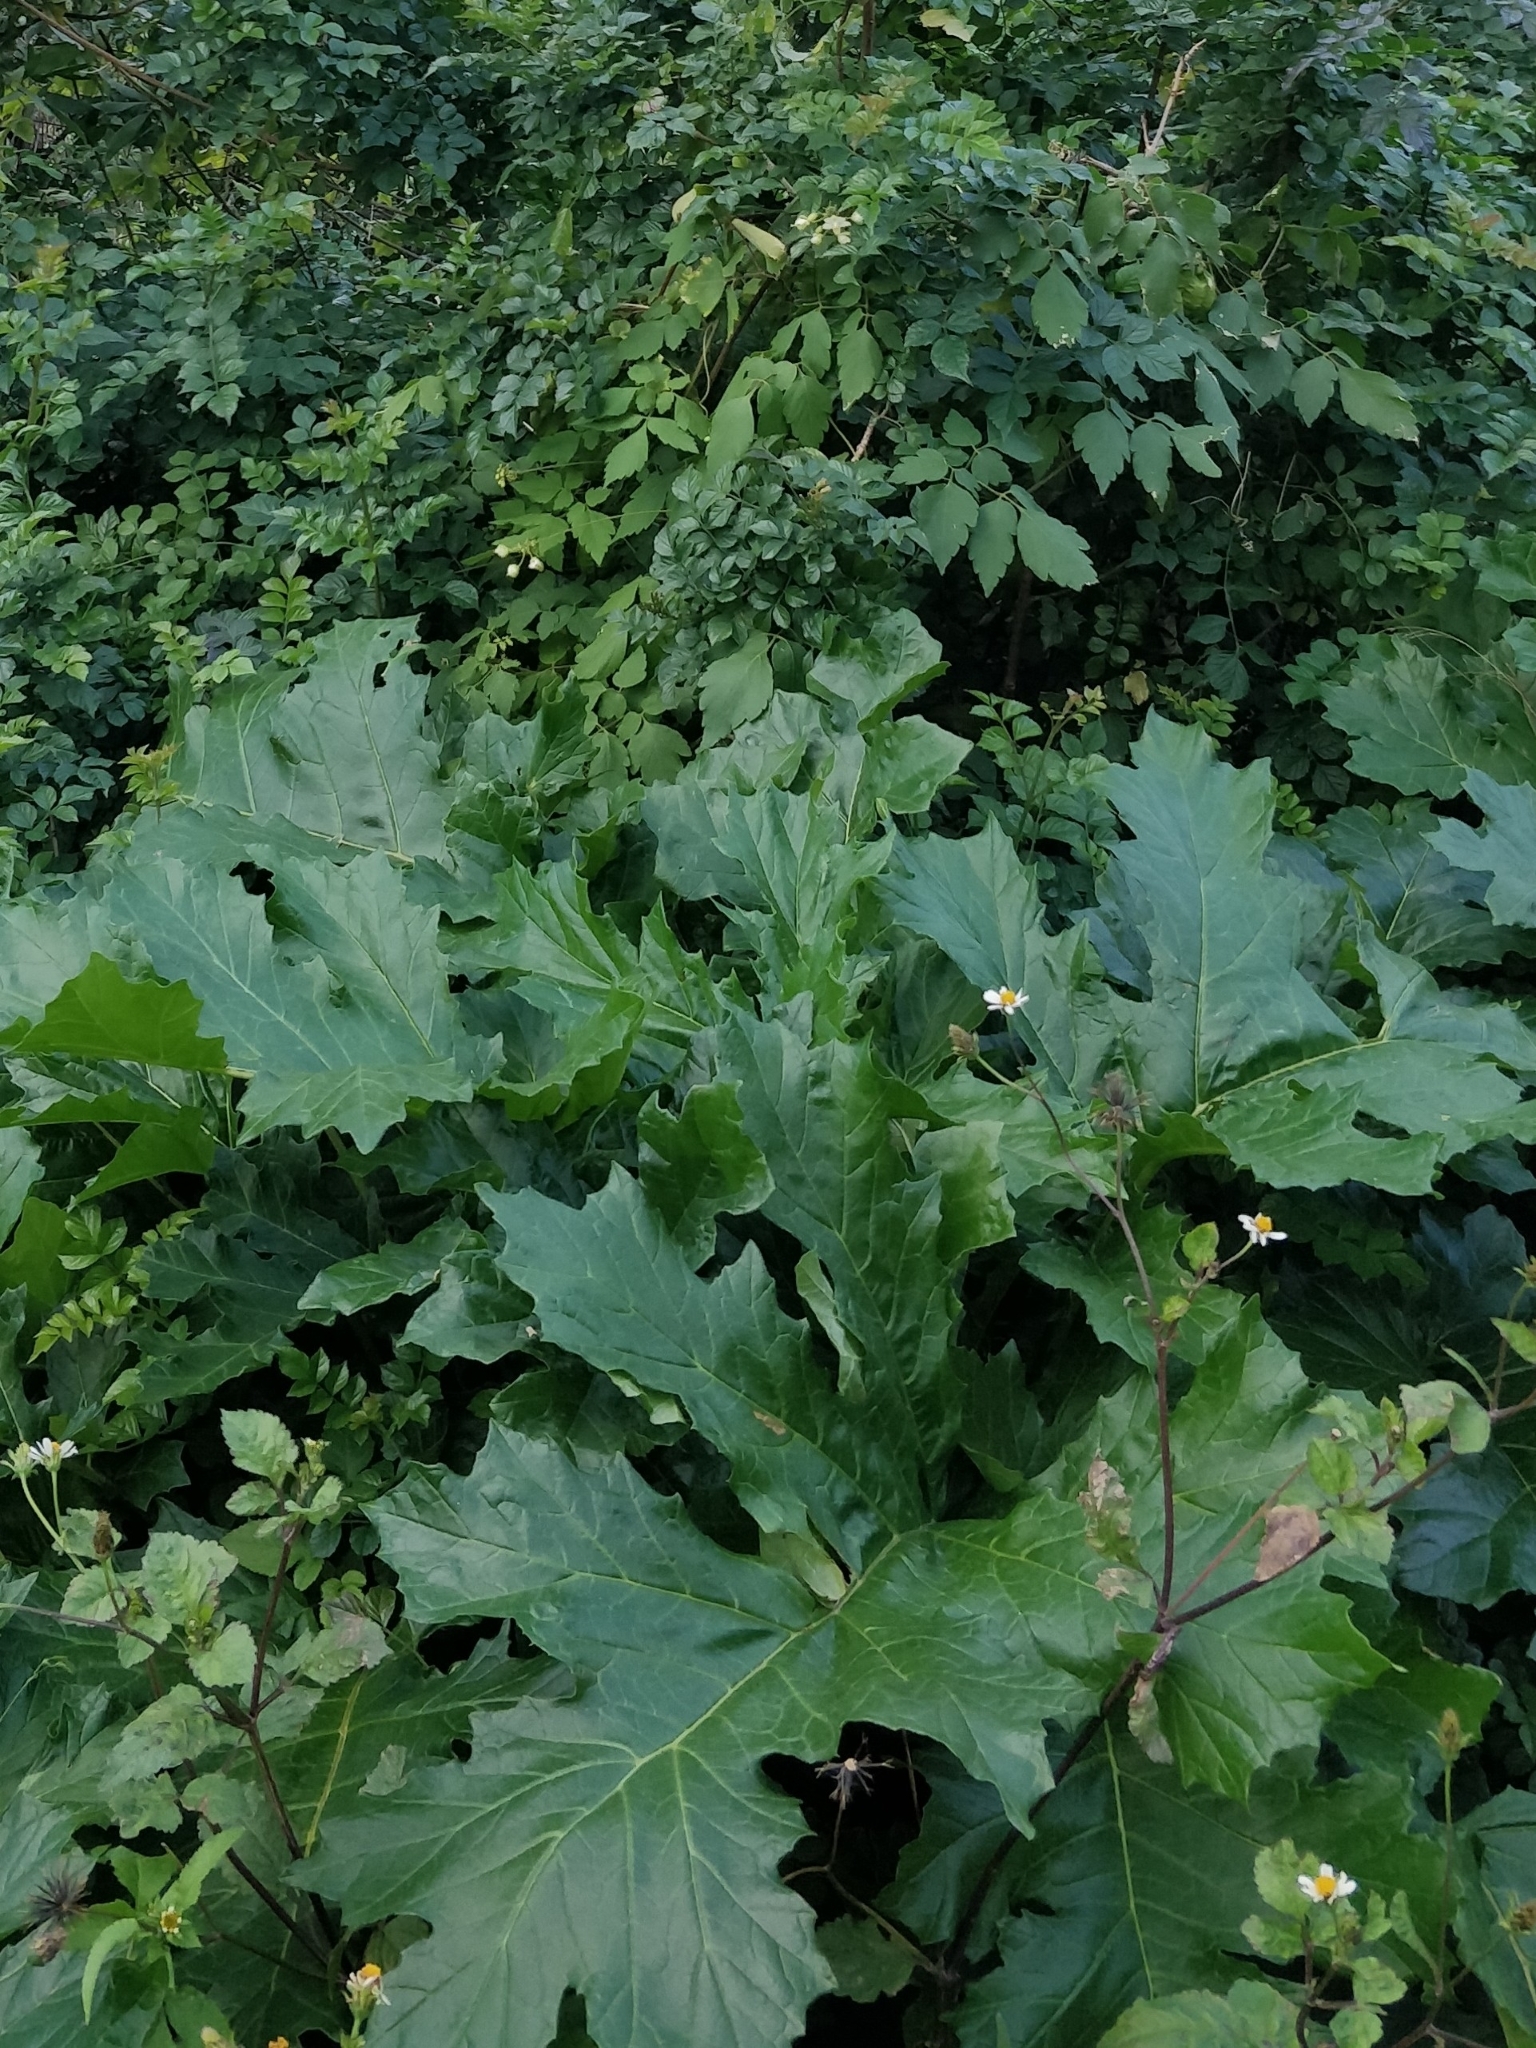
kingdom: Plantae
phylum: Tracheophyta
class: Magnoliopsida
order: Lamiales
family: Acanthaceae
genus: Acanthus
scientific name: Acanthus mollis
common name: Bear's-breech
